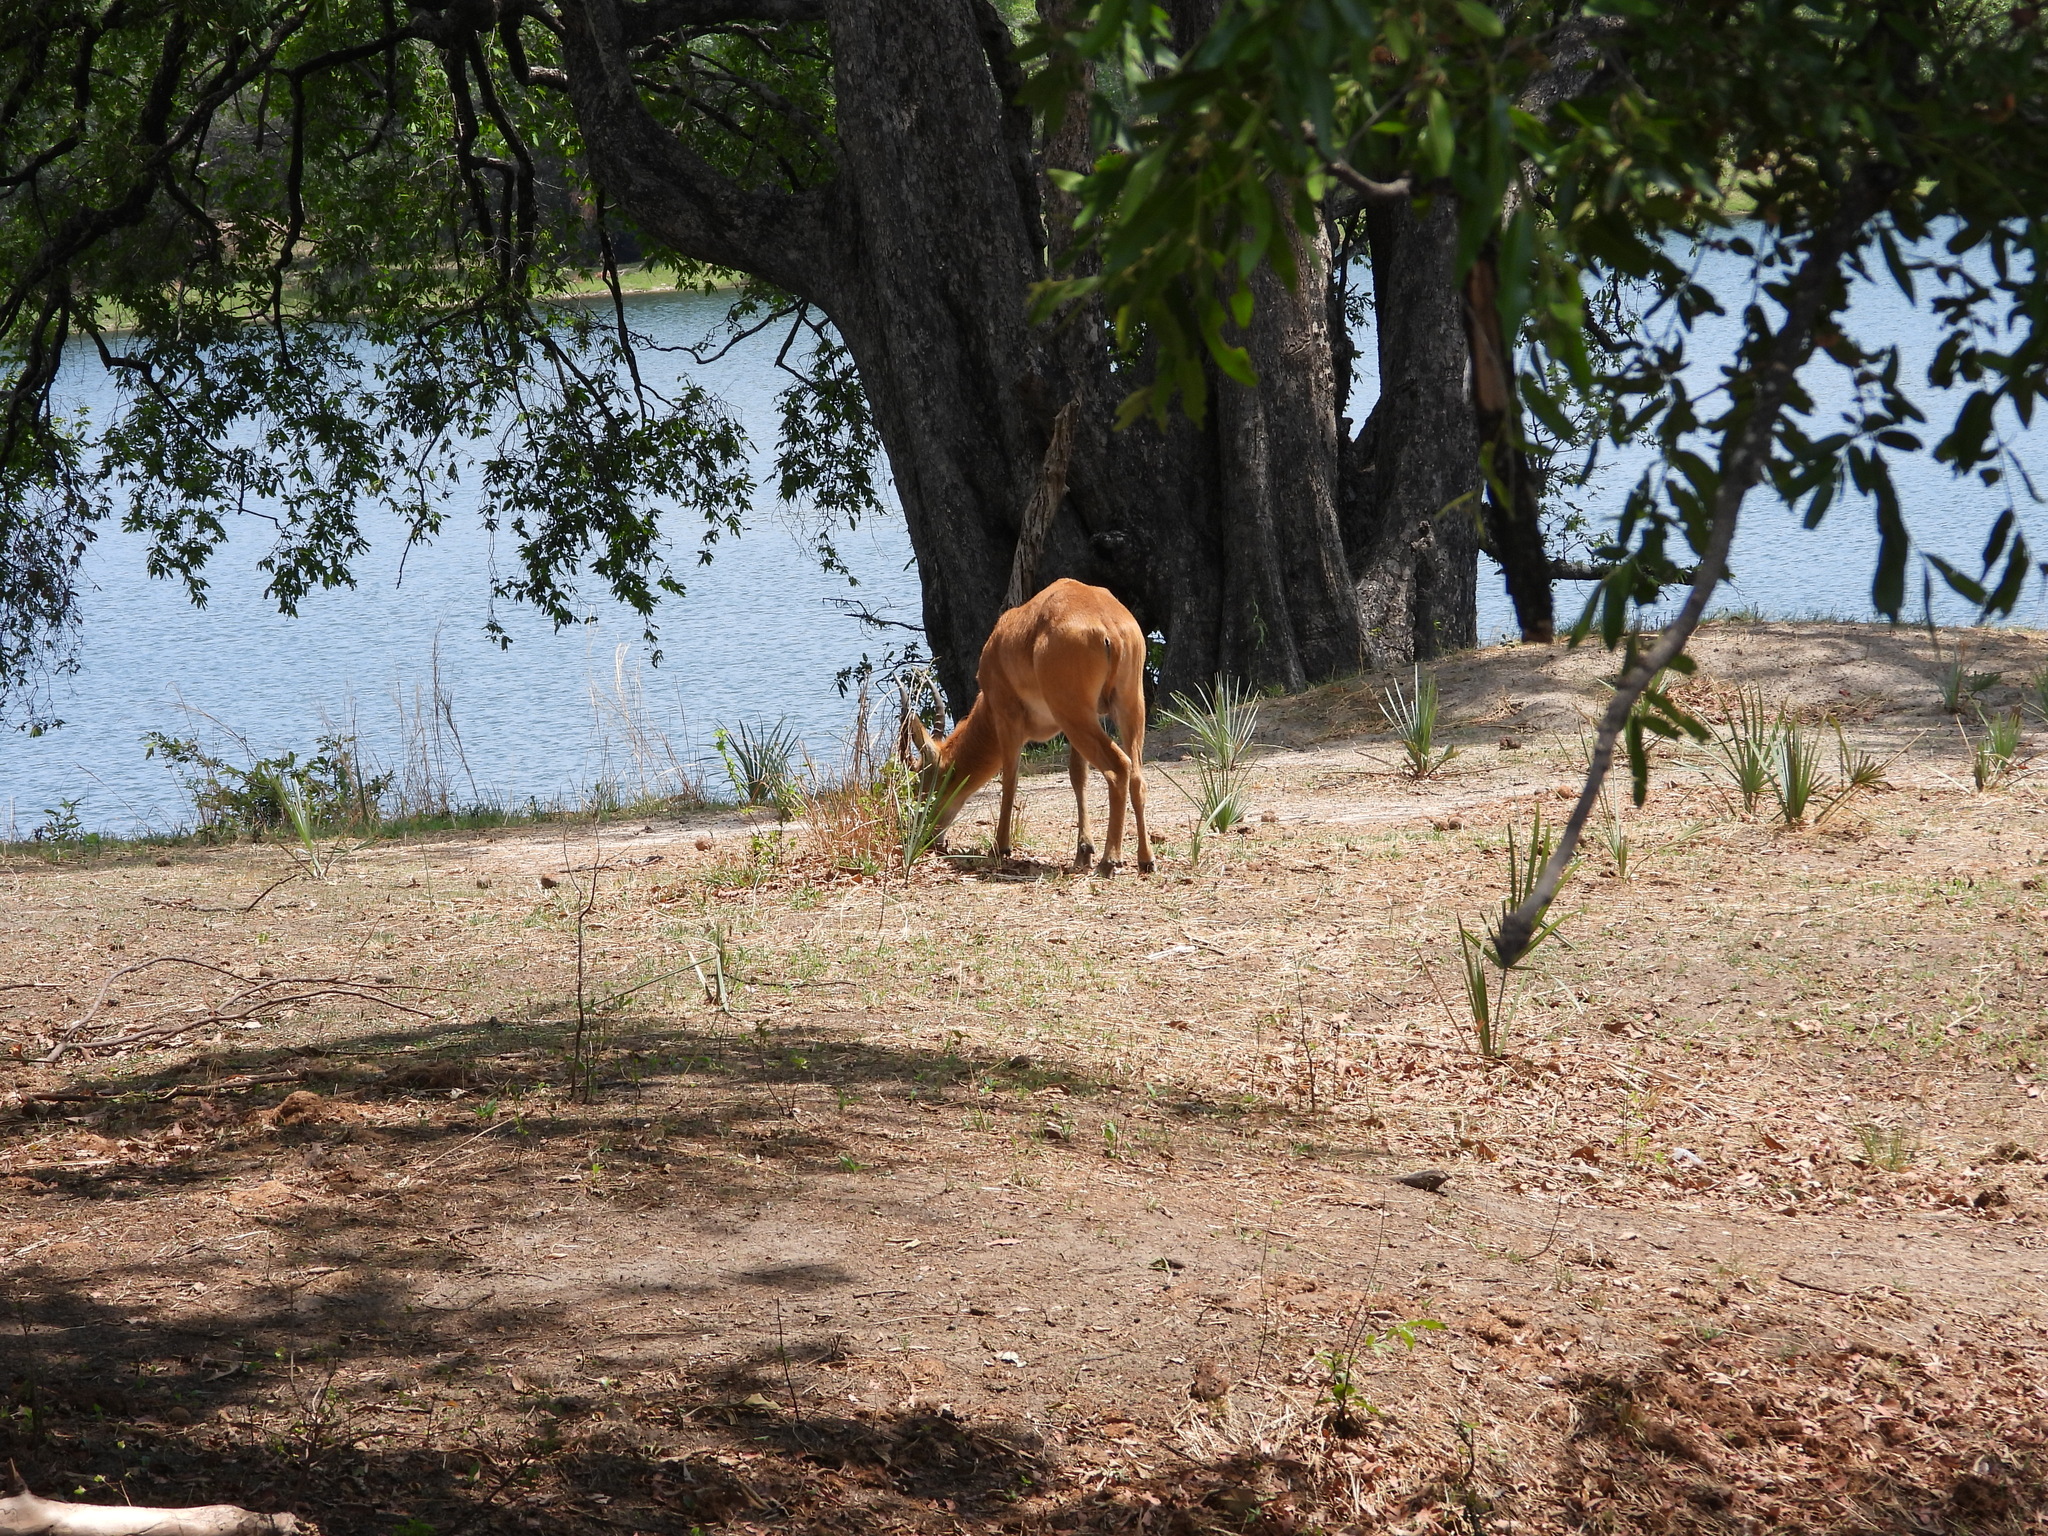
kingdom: Animalia
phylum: Chordata
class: Mammalia
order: Artiodactyla
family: Bovidae
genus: Kobus
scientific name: Kobus vardonii
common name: Puku
